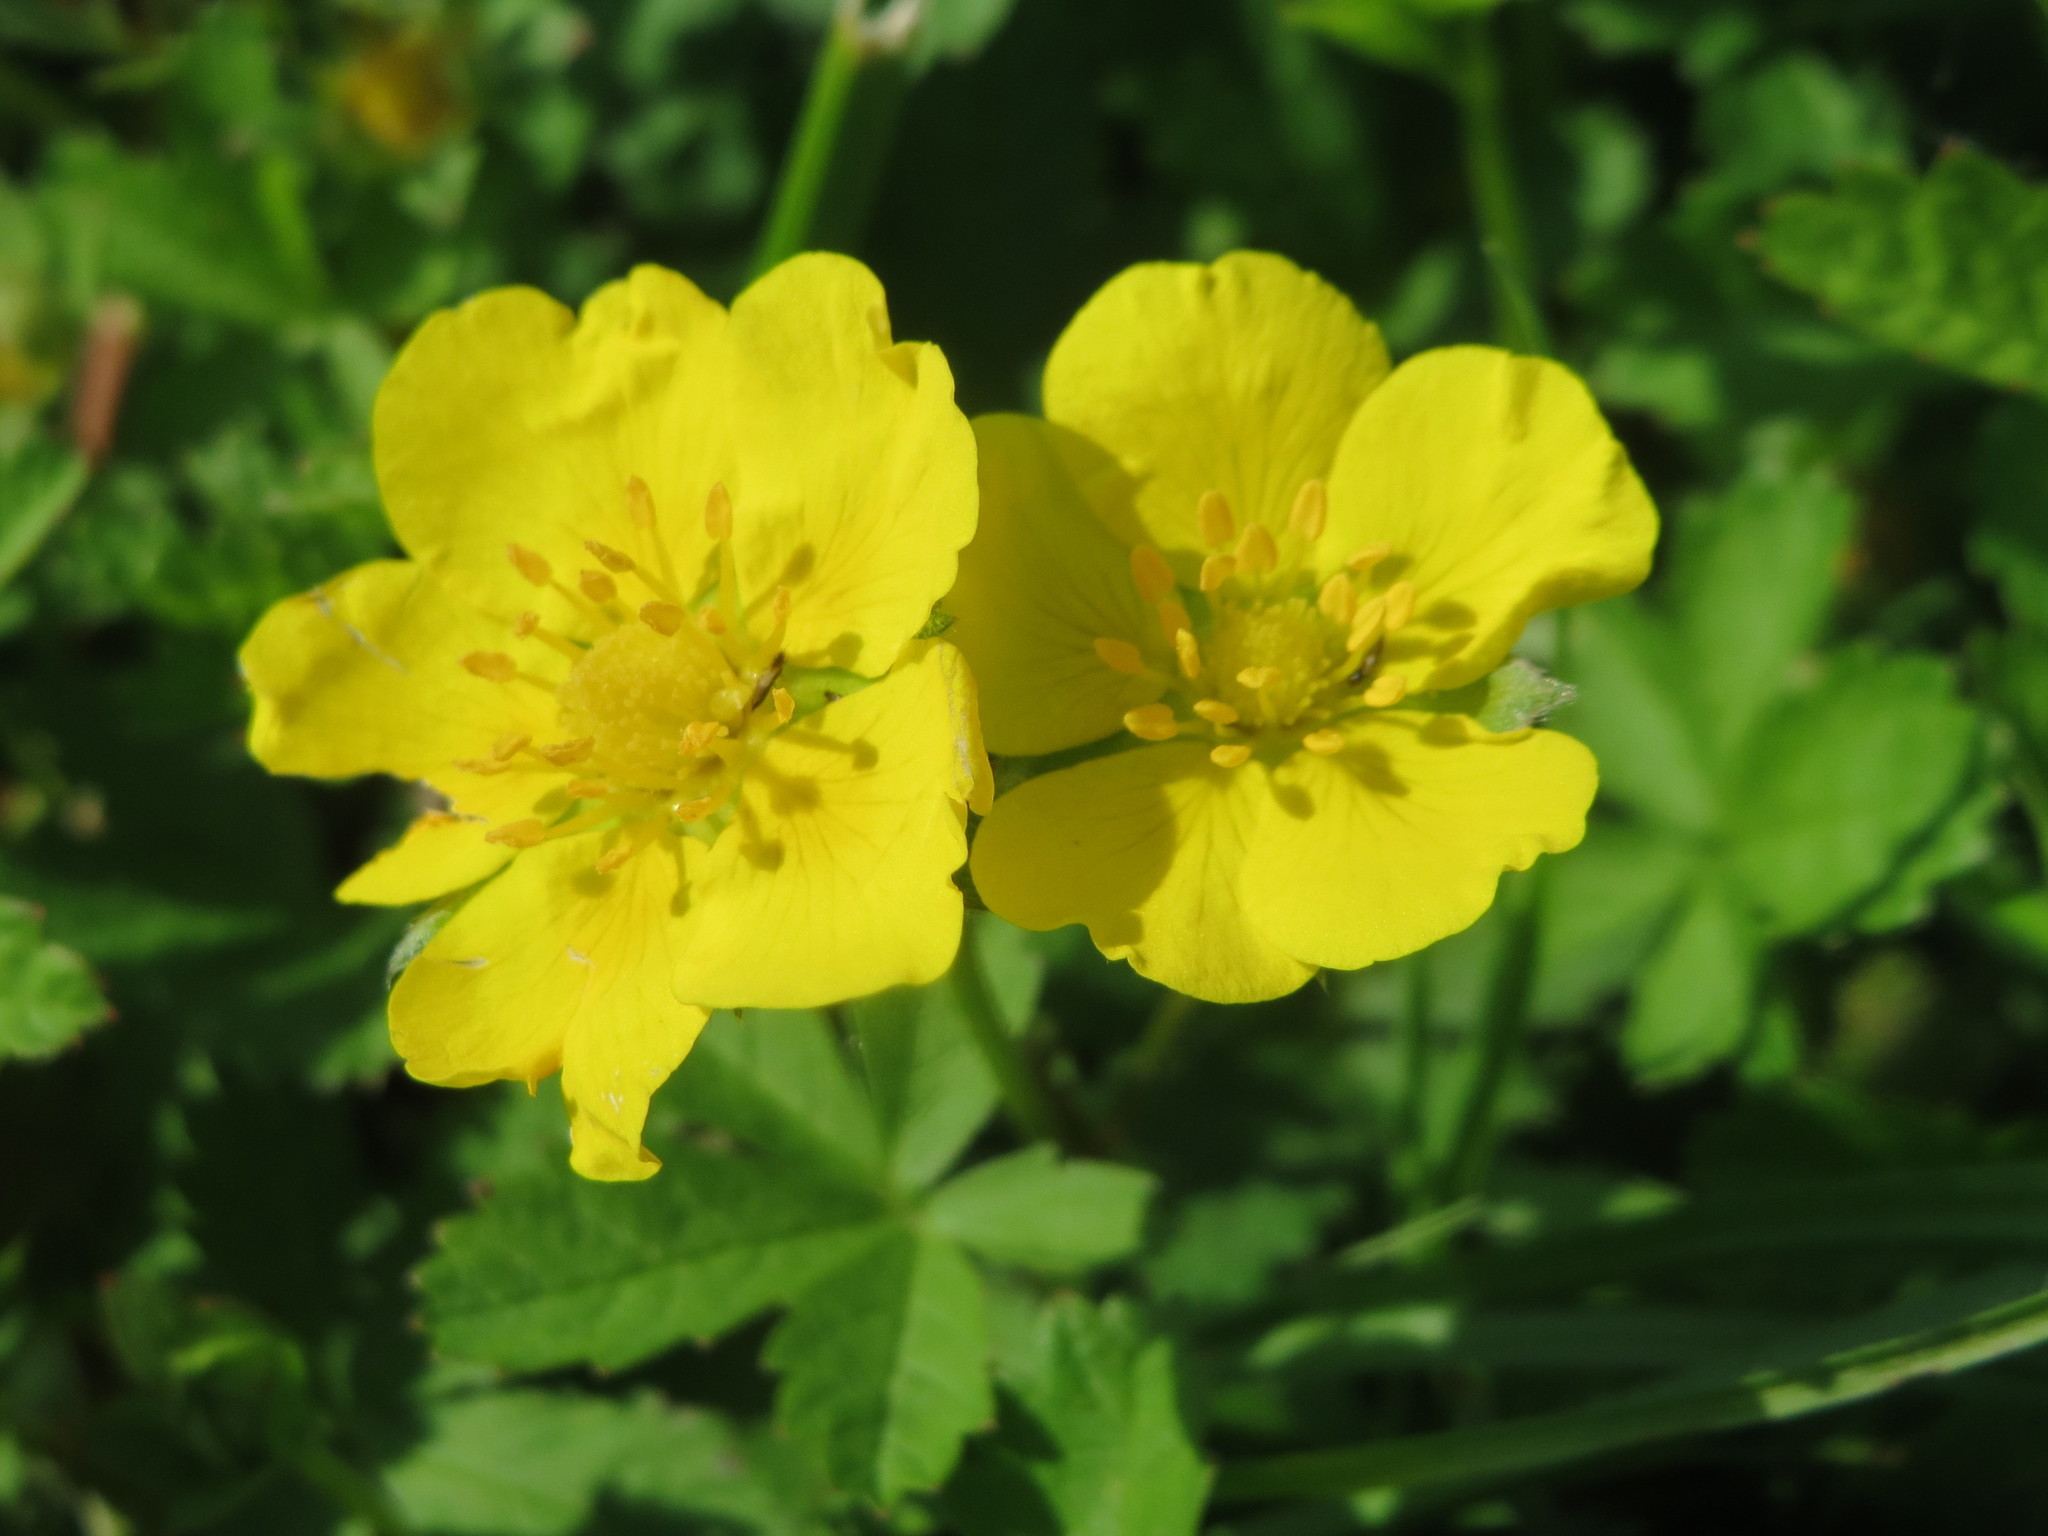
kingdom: Plantae
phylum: Tracheophyta
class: Magnoliopsida
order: Rosales
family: Rosaceae
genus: Potentilla
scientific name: Potentilla reptans
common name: Creeping cinquefoil
